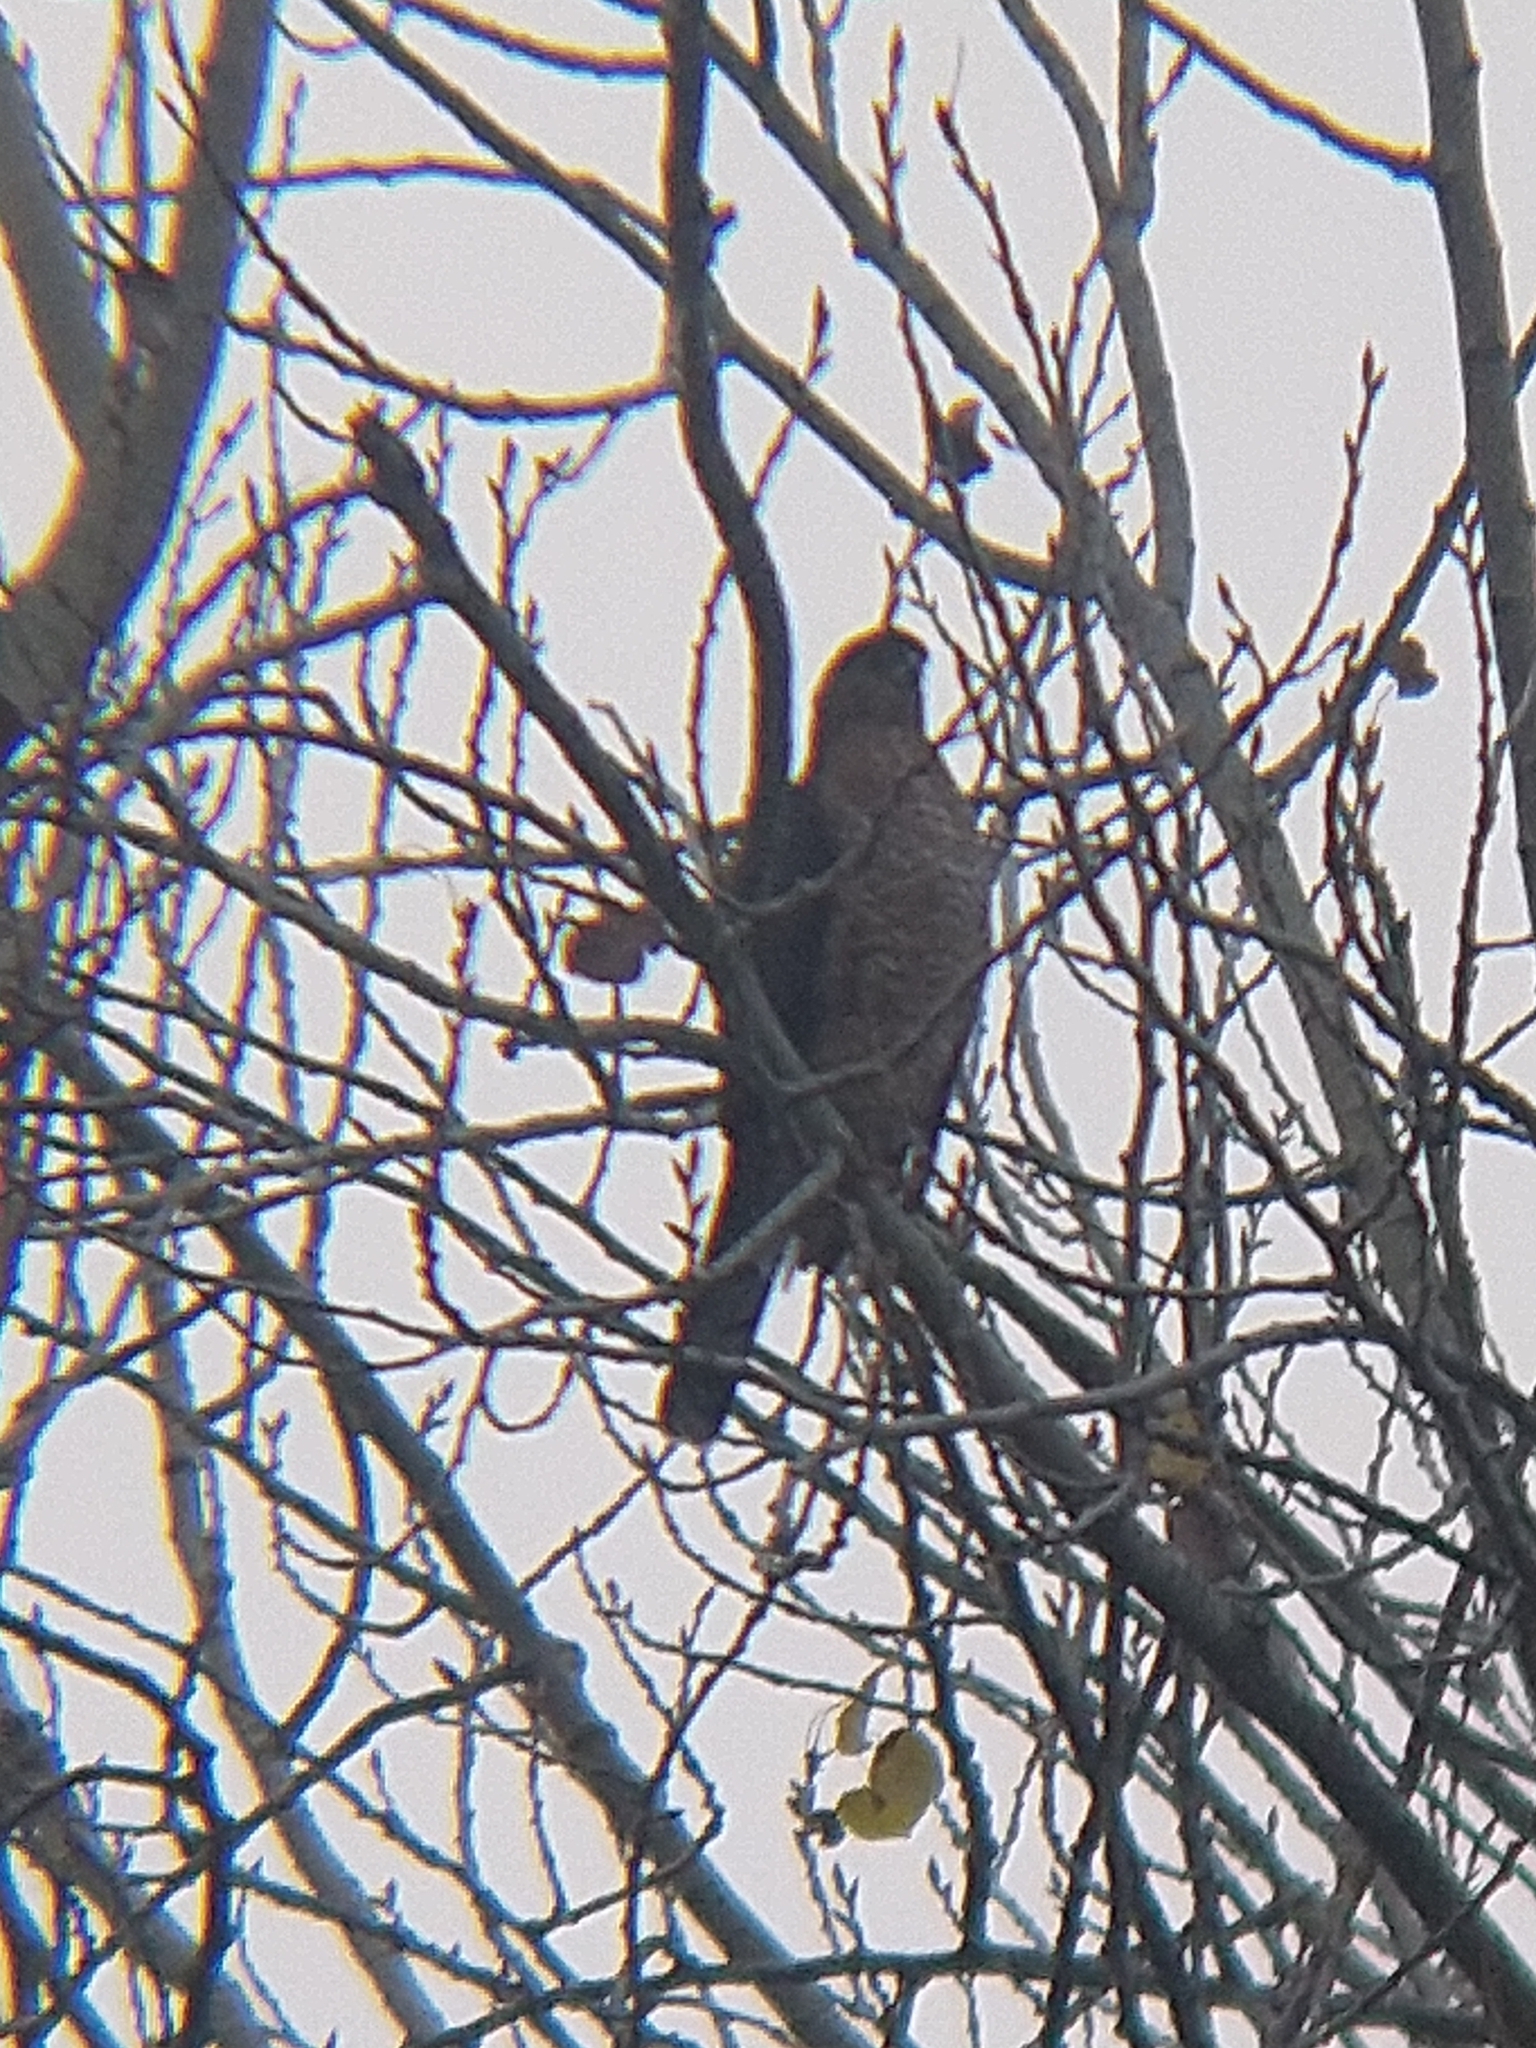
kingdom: Animalia
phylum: Chordata
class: Aves
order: Accipitriformes
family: Accipitridae
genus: Accipiter
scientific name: Accipiter cooperii
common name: Cooper's hawk
